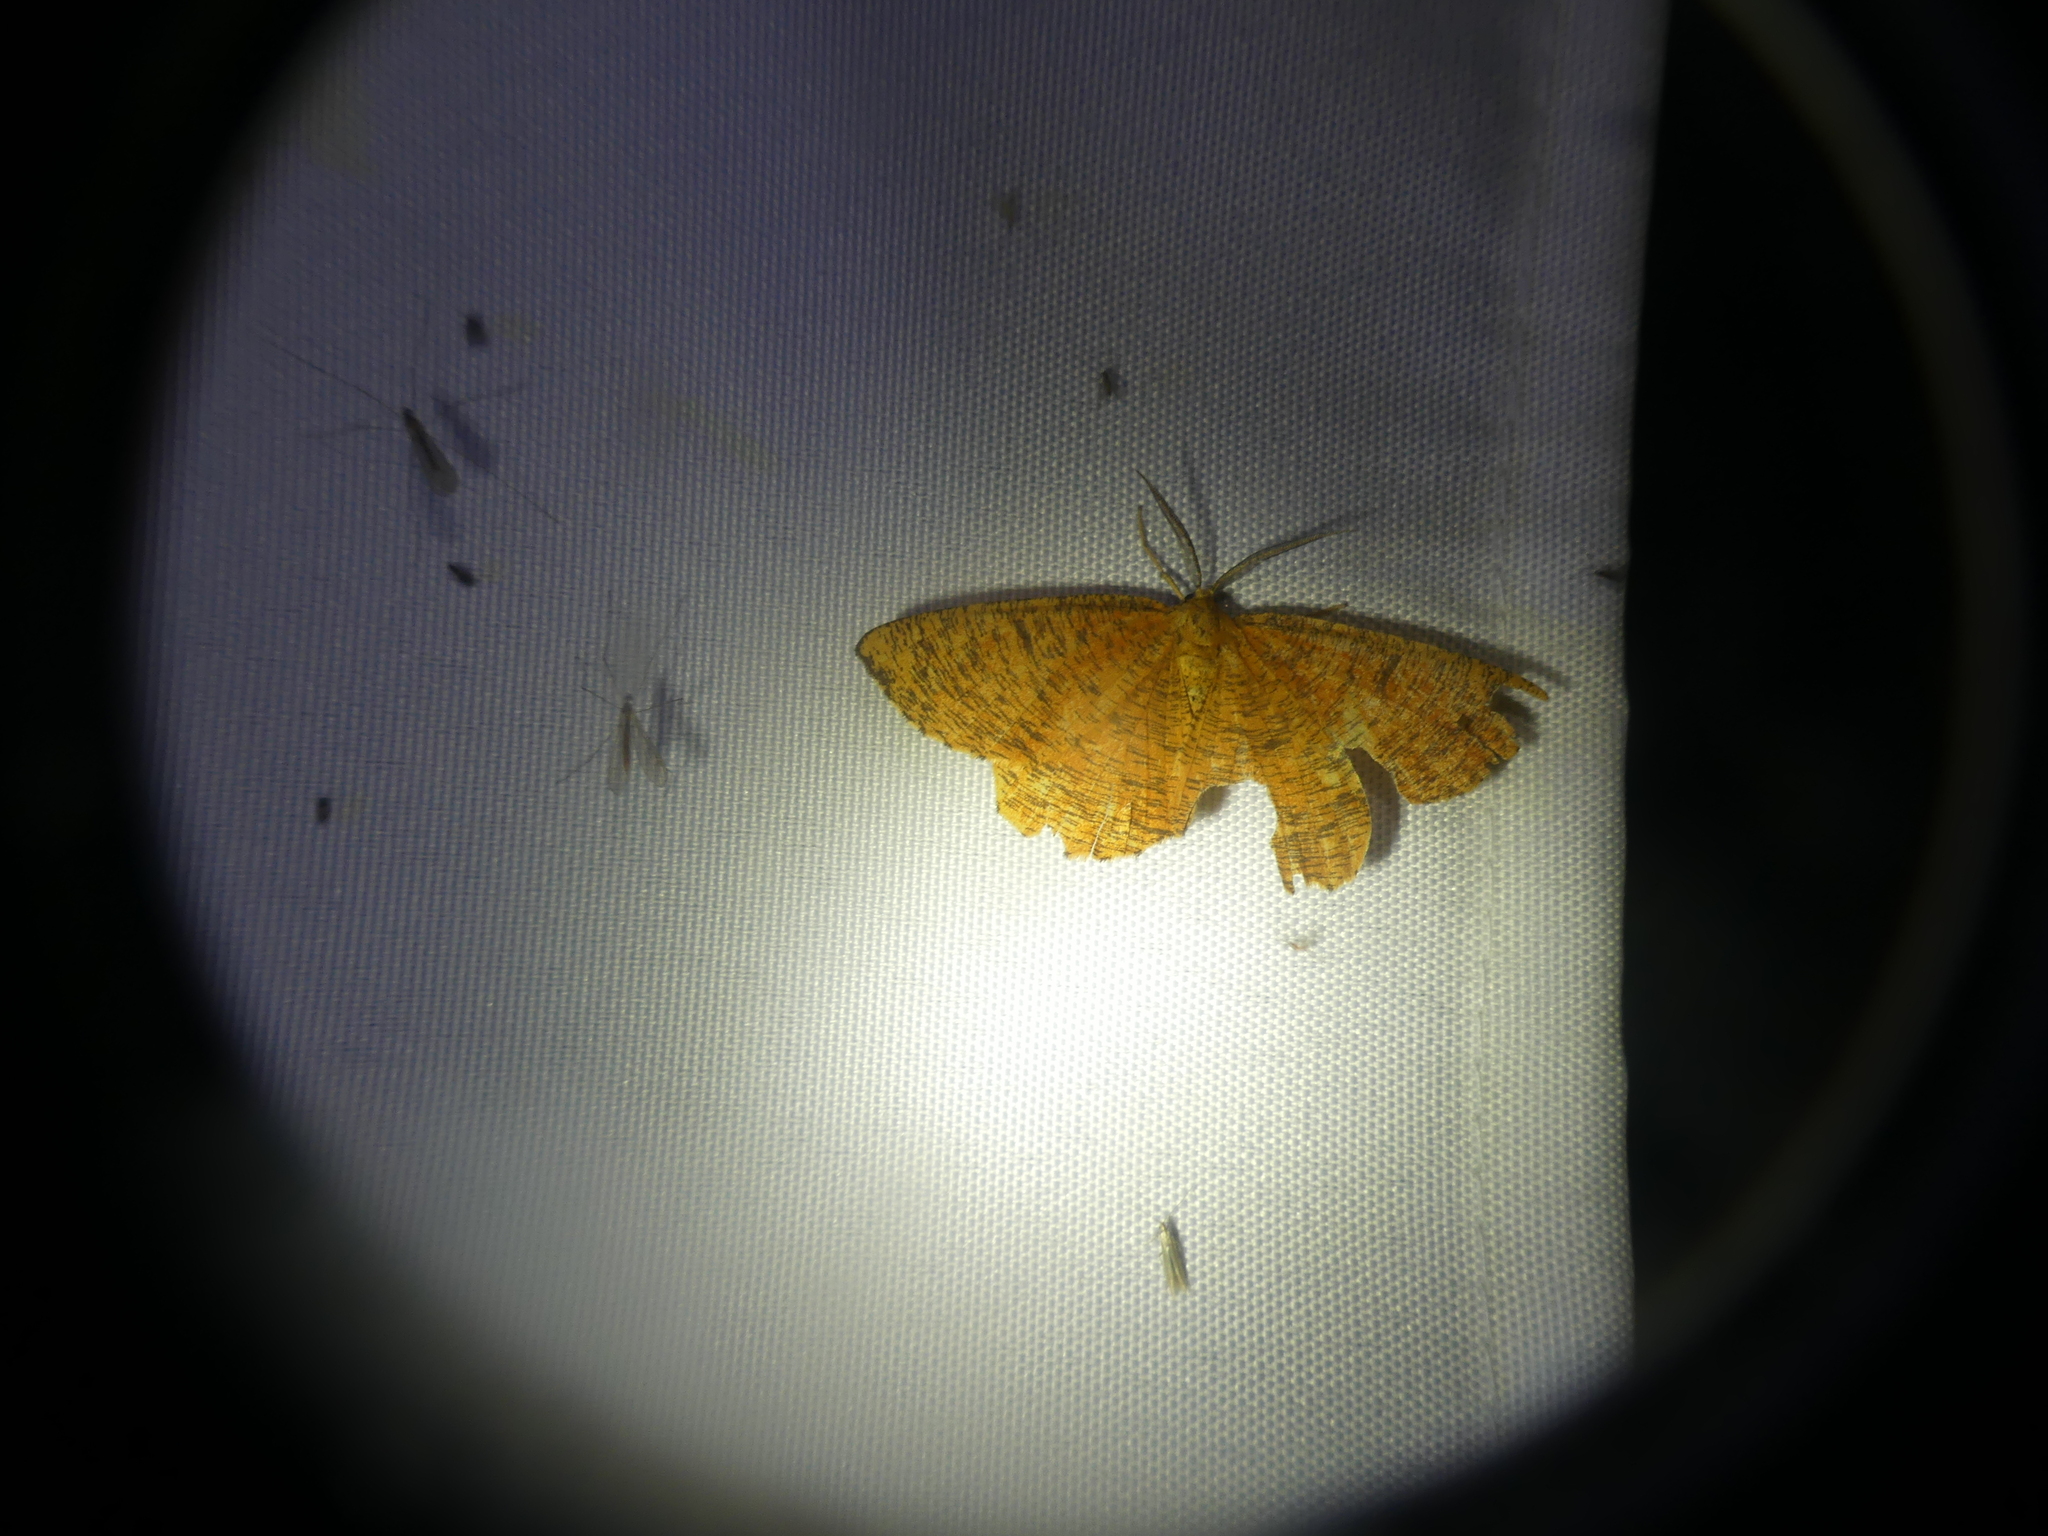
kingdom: Animalia
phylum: Arthropoda
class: Insecta
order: Lepidoptera
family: Geometridae
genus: Angerona
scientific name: Angerona prunaria
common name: Orange moth
